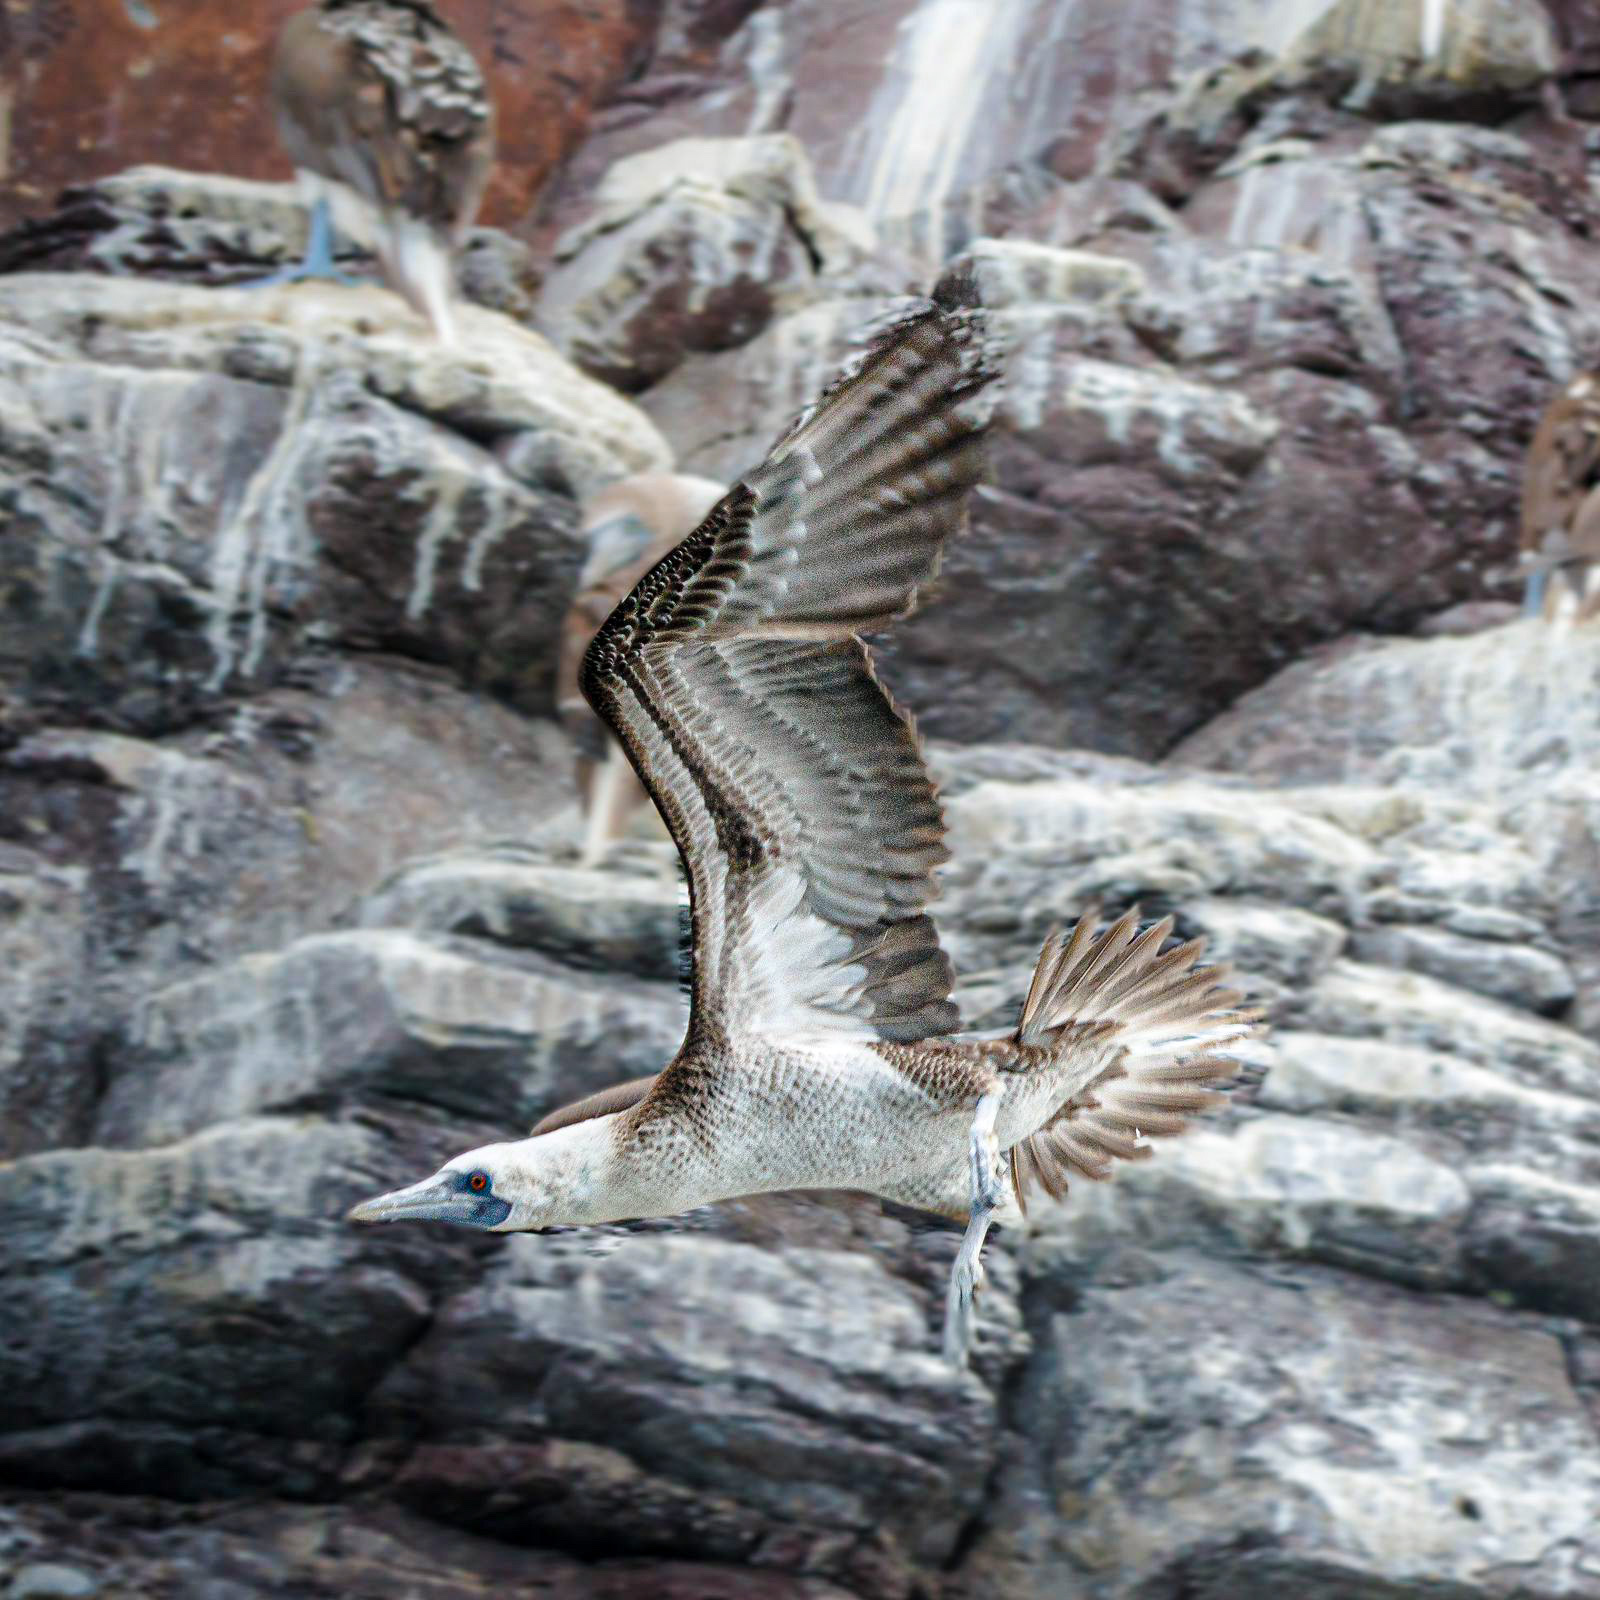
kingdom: Animalia
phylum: Chordata
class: Aves
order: Suliformes
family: Sulidae
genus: Sula
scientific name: Sula variegata
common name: Peruvian booby
